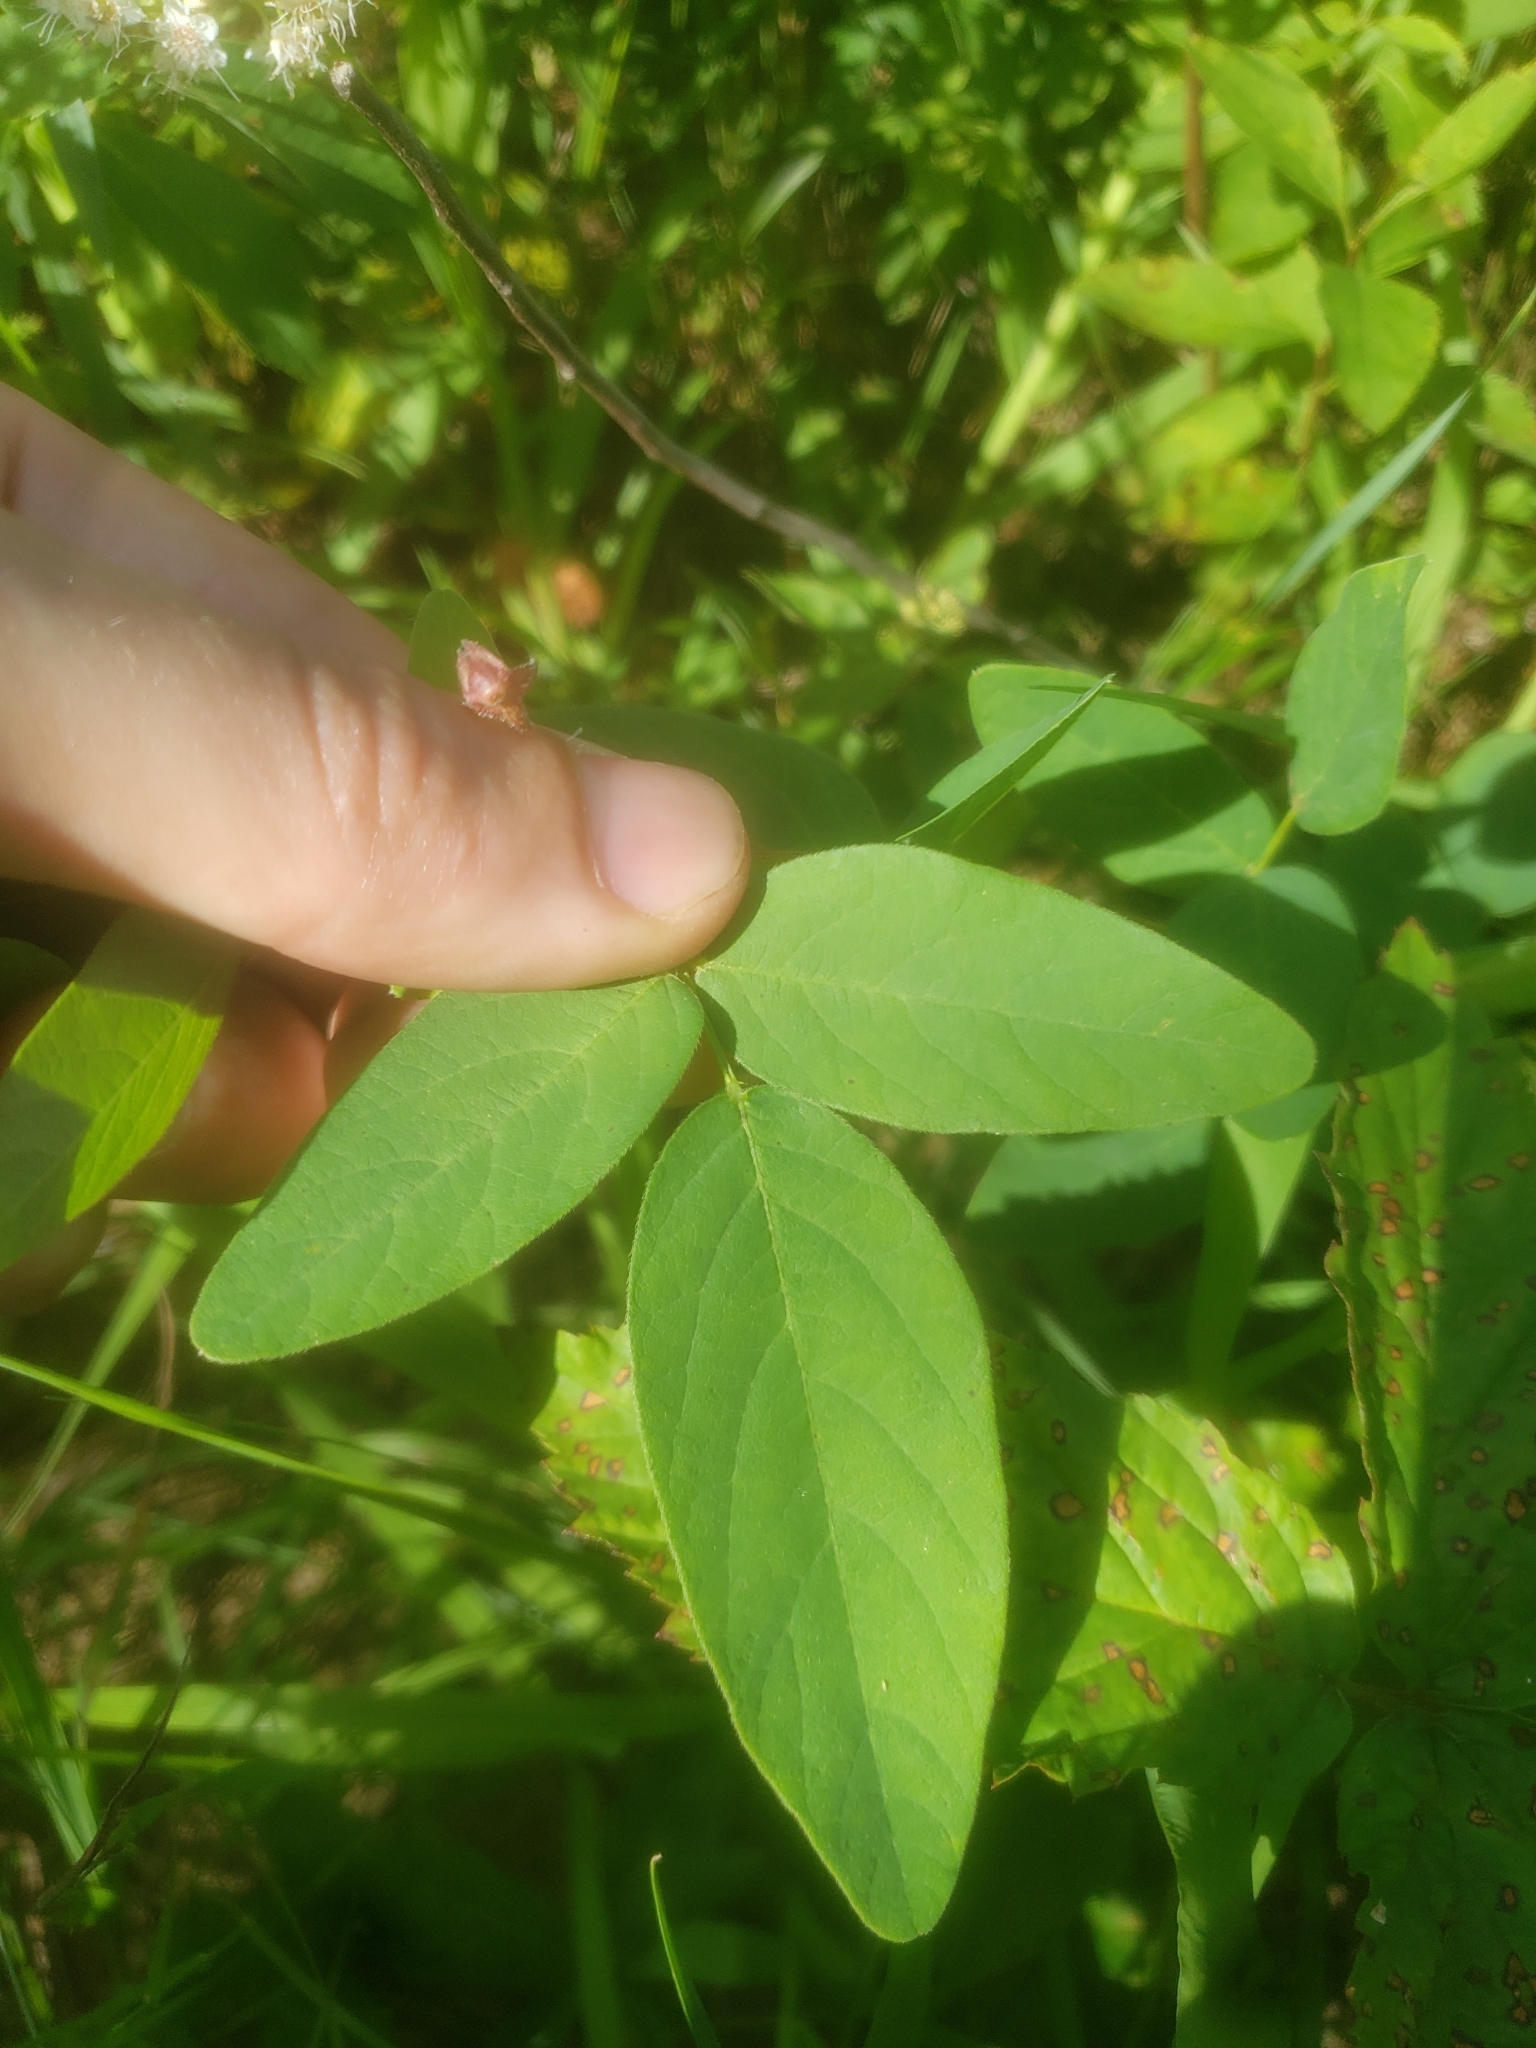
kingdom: Plantae
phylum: Tracheophyta
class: Magnoliopsida
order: Fabales
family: Fabaceae
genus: Desmodium
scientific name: Desmodium canadense
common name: Canada tick-trefoil
